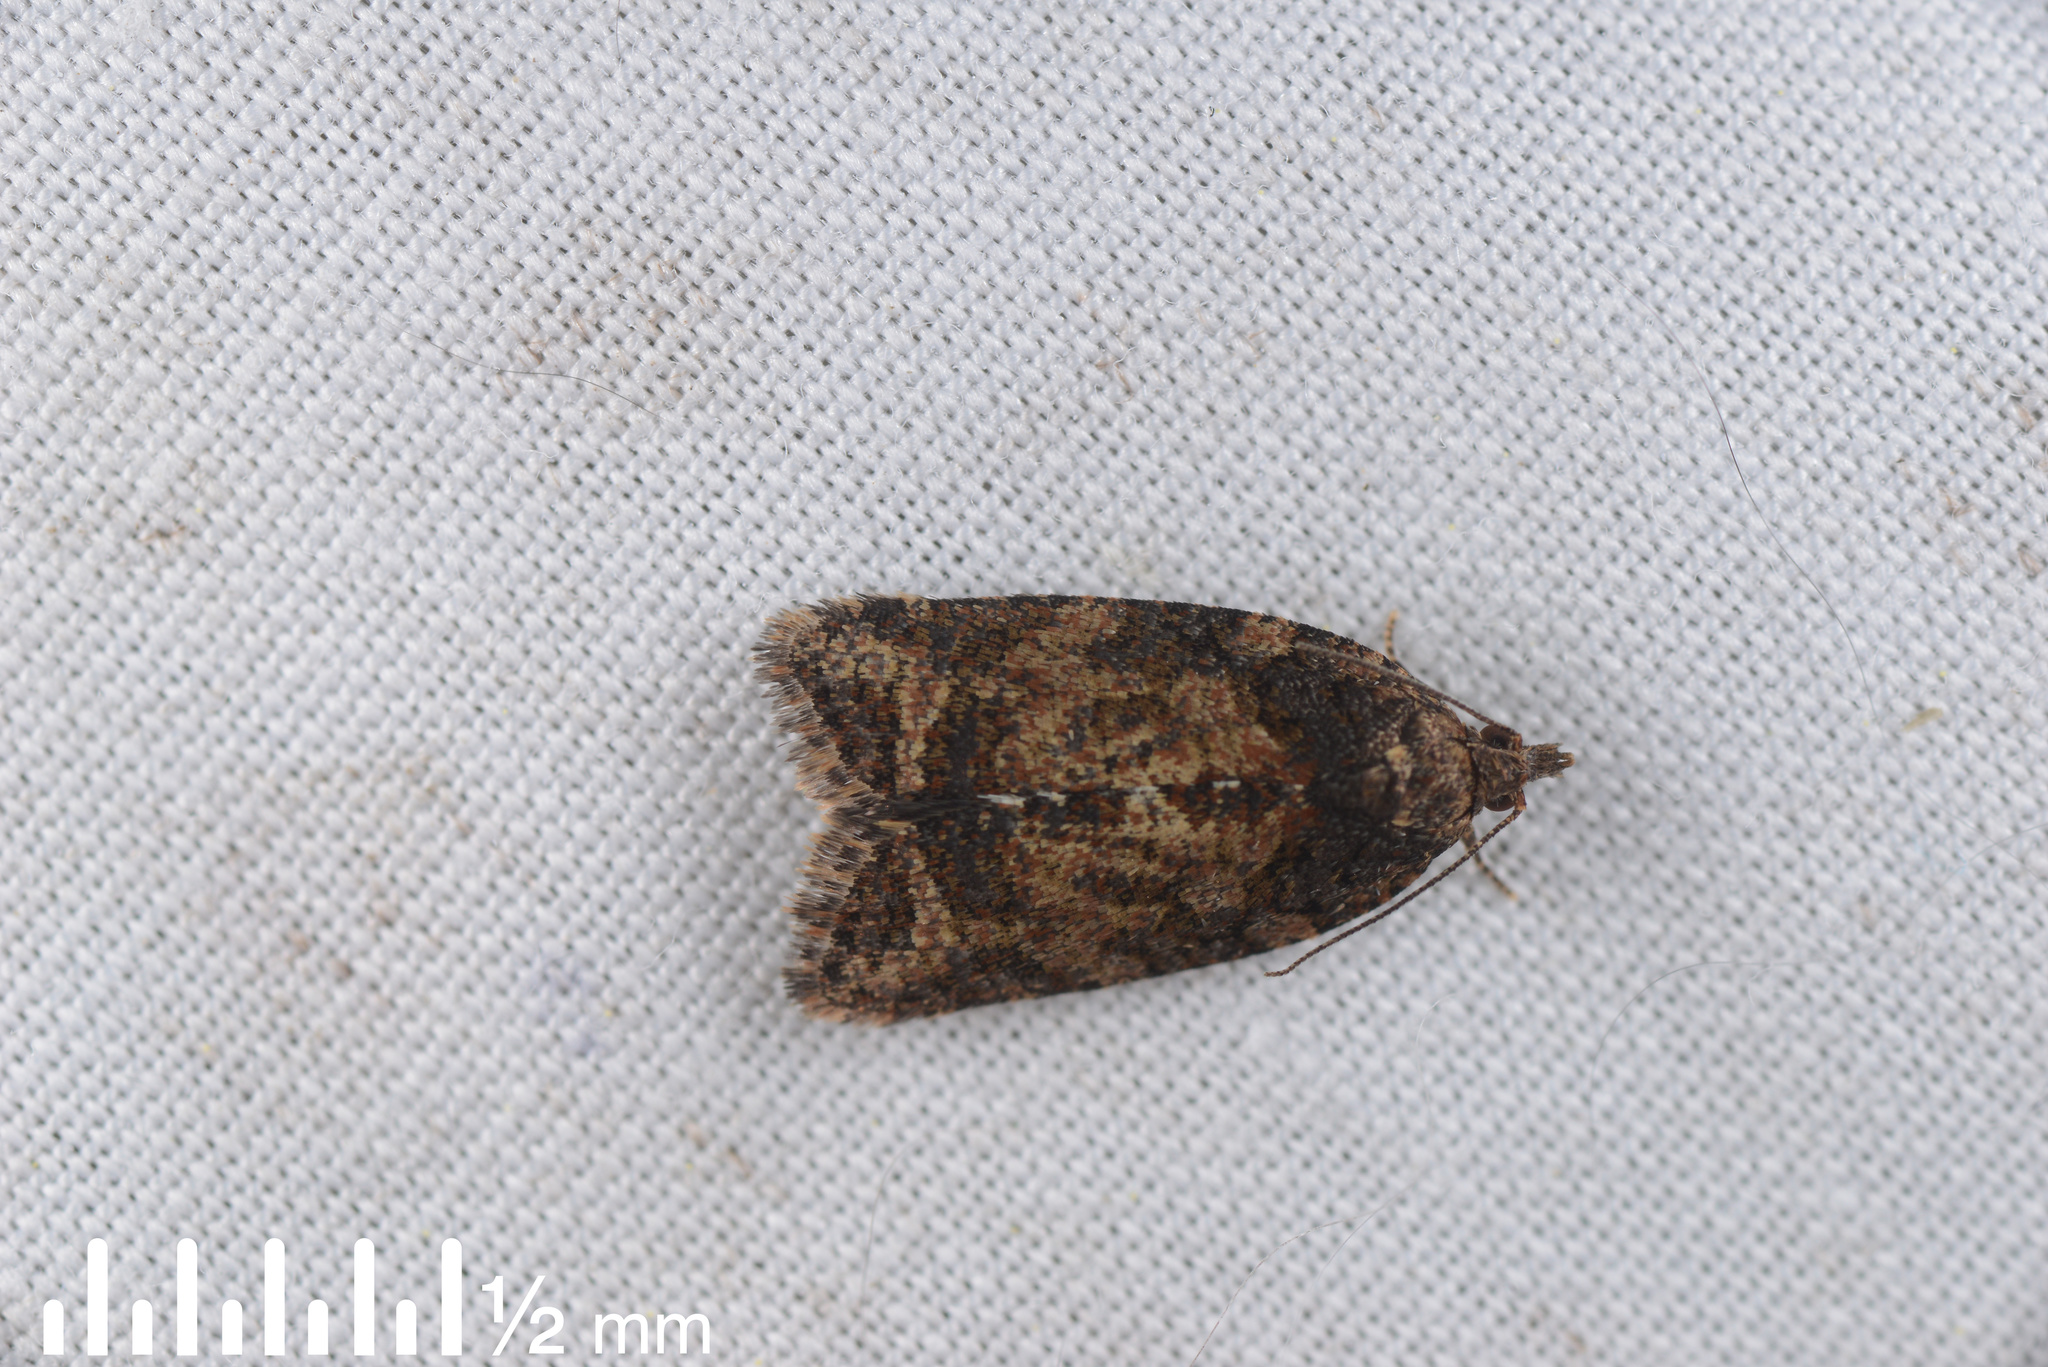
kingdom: Animalia
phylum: Arthropoda
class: Insecta
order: Lepidoptera
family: Tortricidae
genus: Capua
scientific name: Capua intractana
